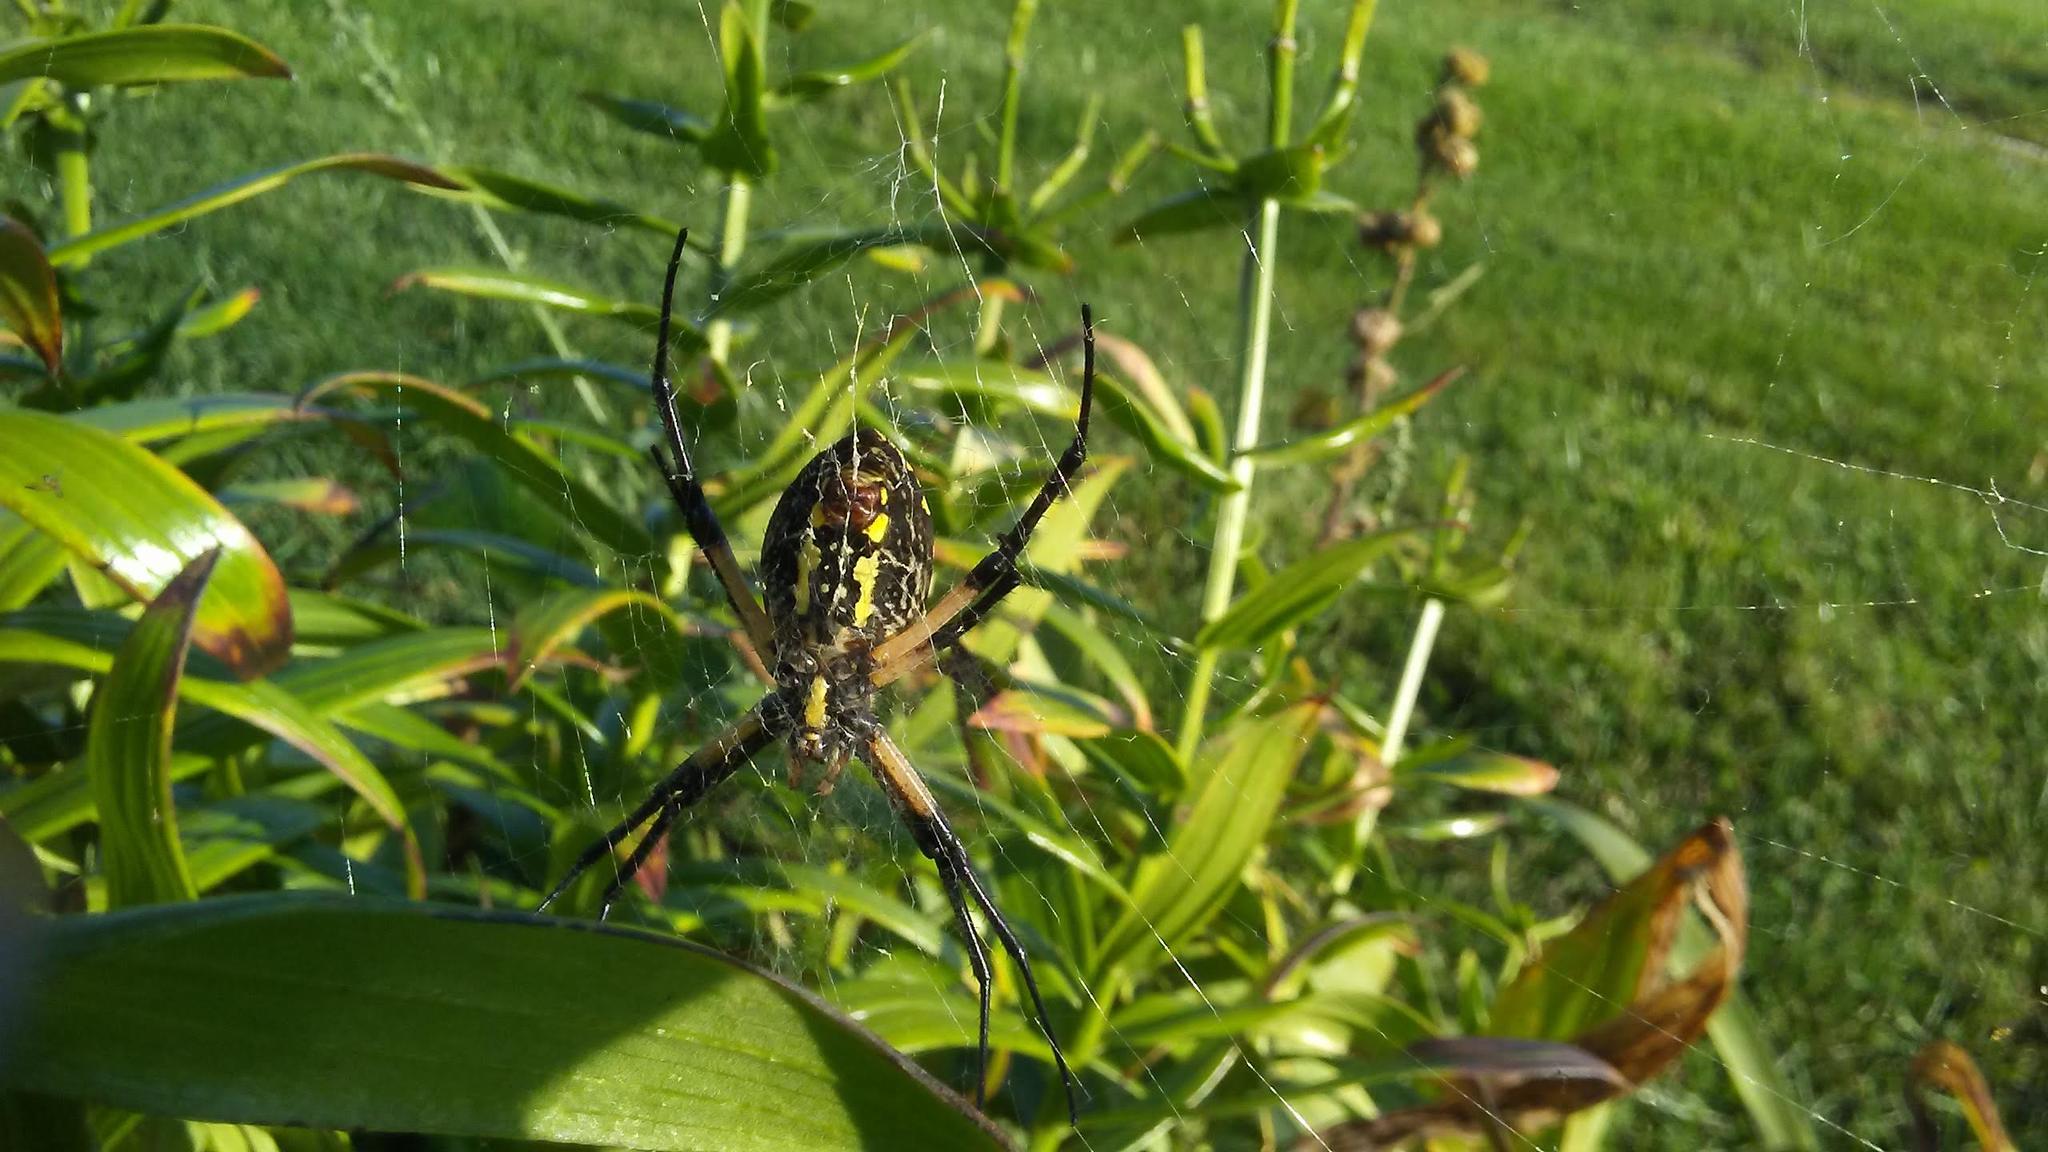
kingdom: Animalia
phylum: Arthropoda
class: Arachnida
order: Araneae
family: Araneidae
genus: Argiope
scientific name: Argiope aurantia
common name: Orb weavers
